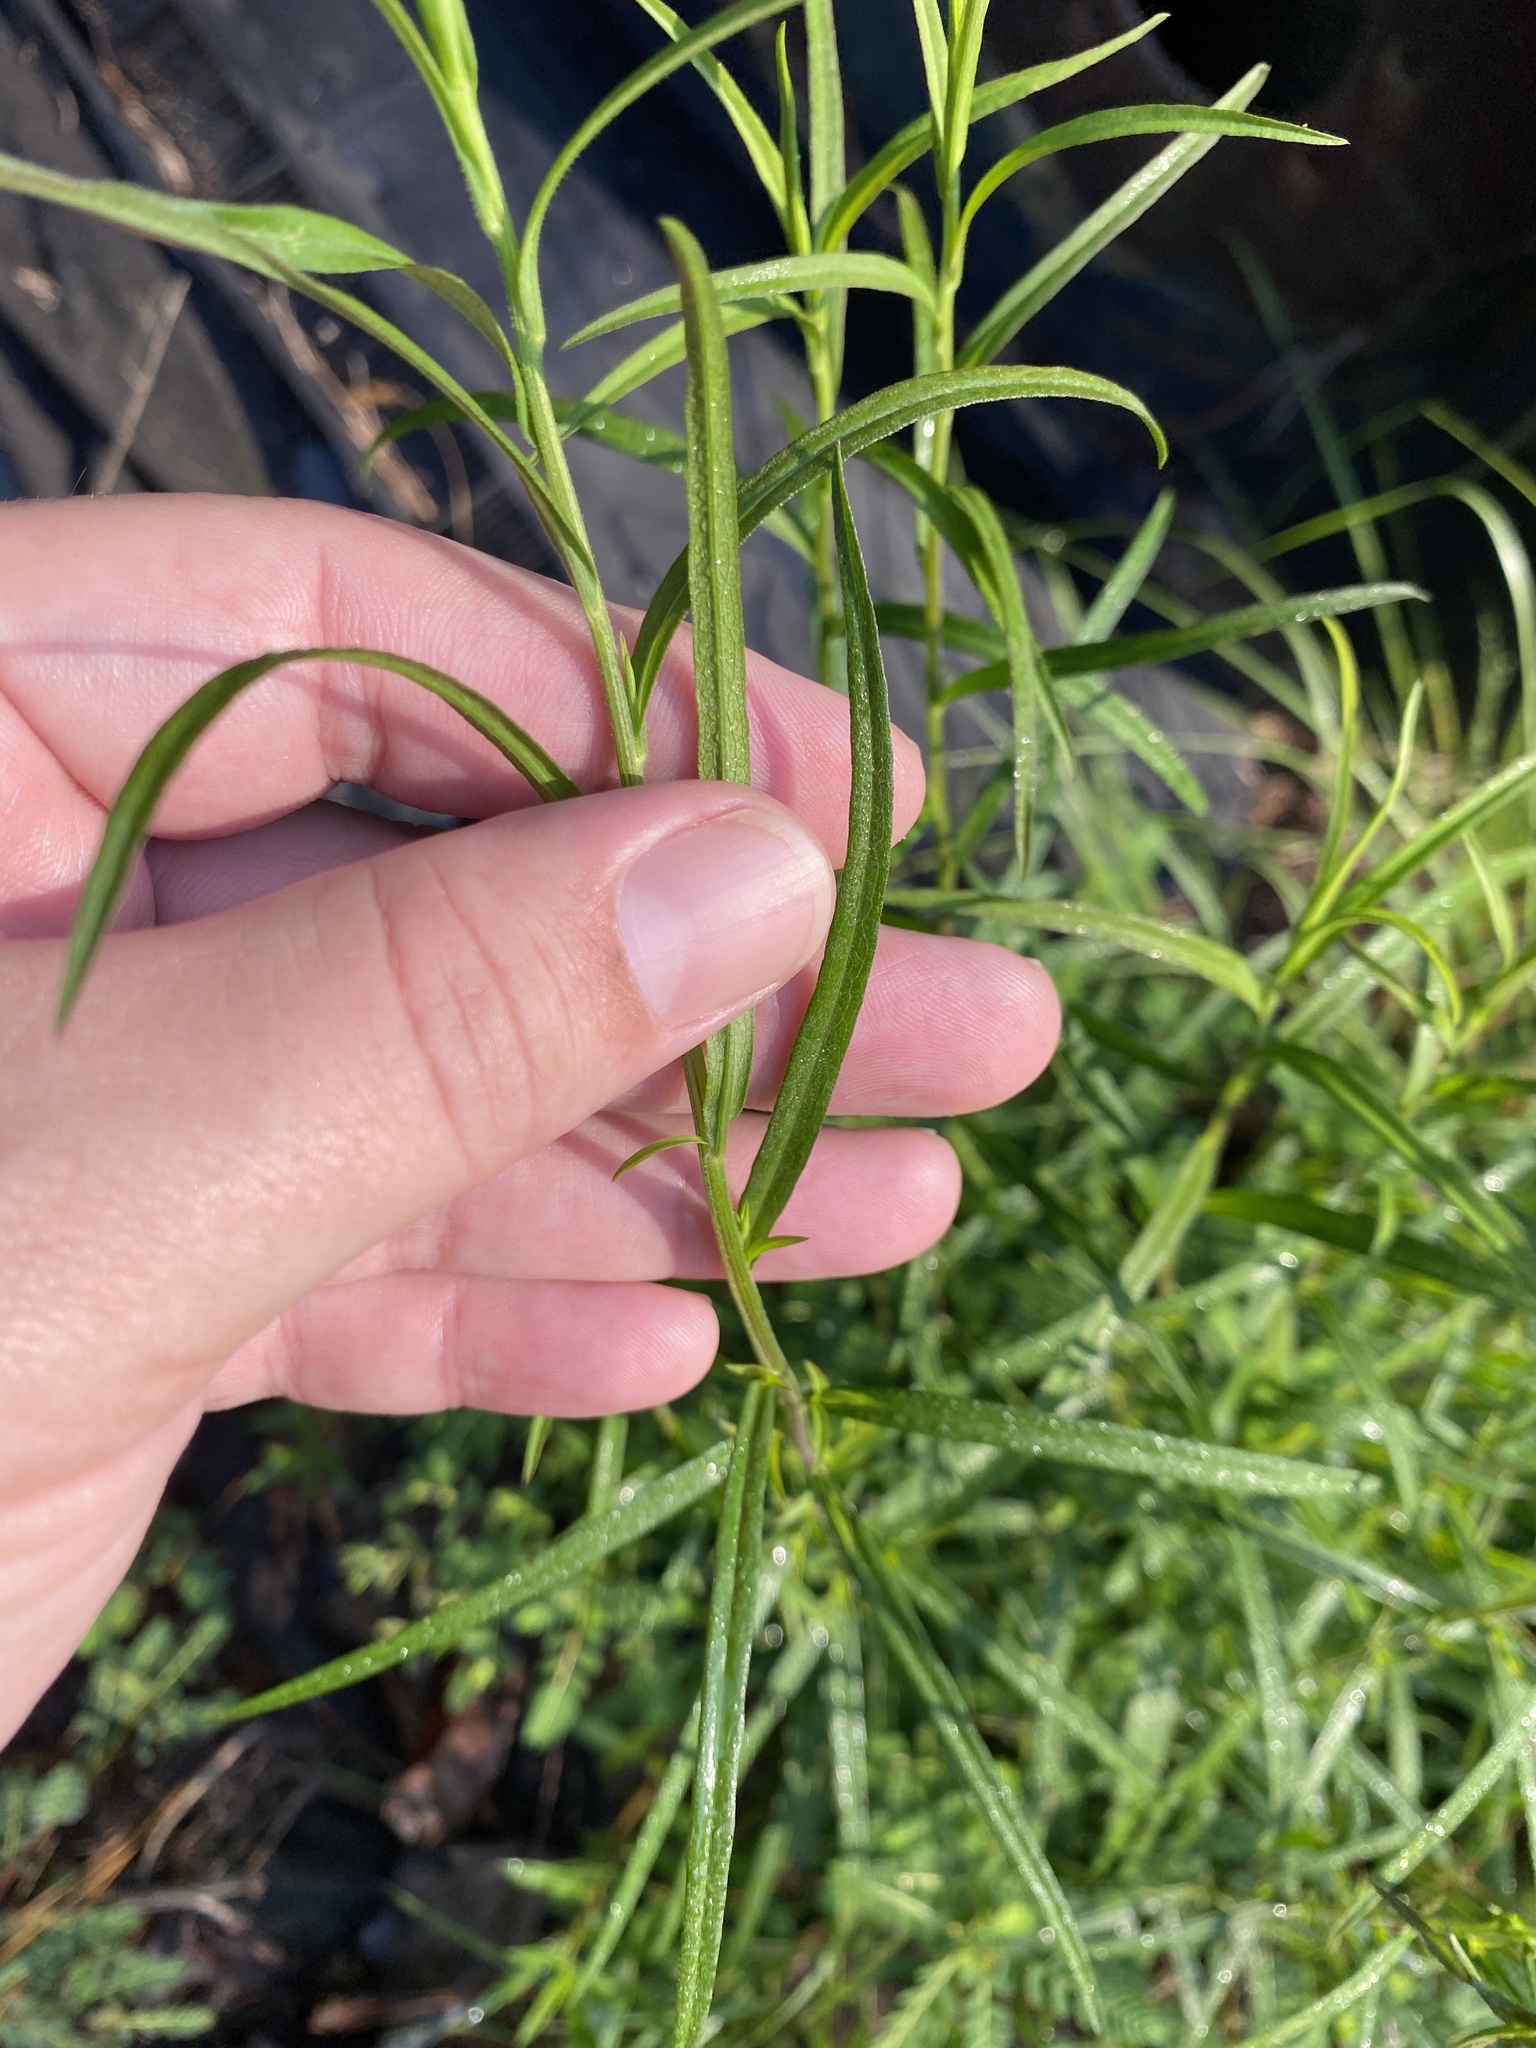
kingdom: Plantae
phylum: Tracheophyta
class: Magnoliopsida
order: Asterales
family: Asteraceae
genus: Helianthus
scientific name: Helianthus angustifolius
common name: Swamp sunflower
